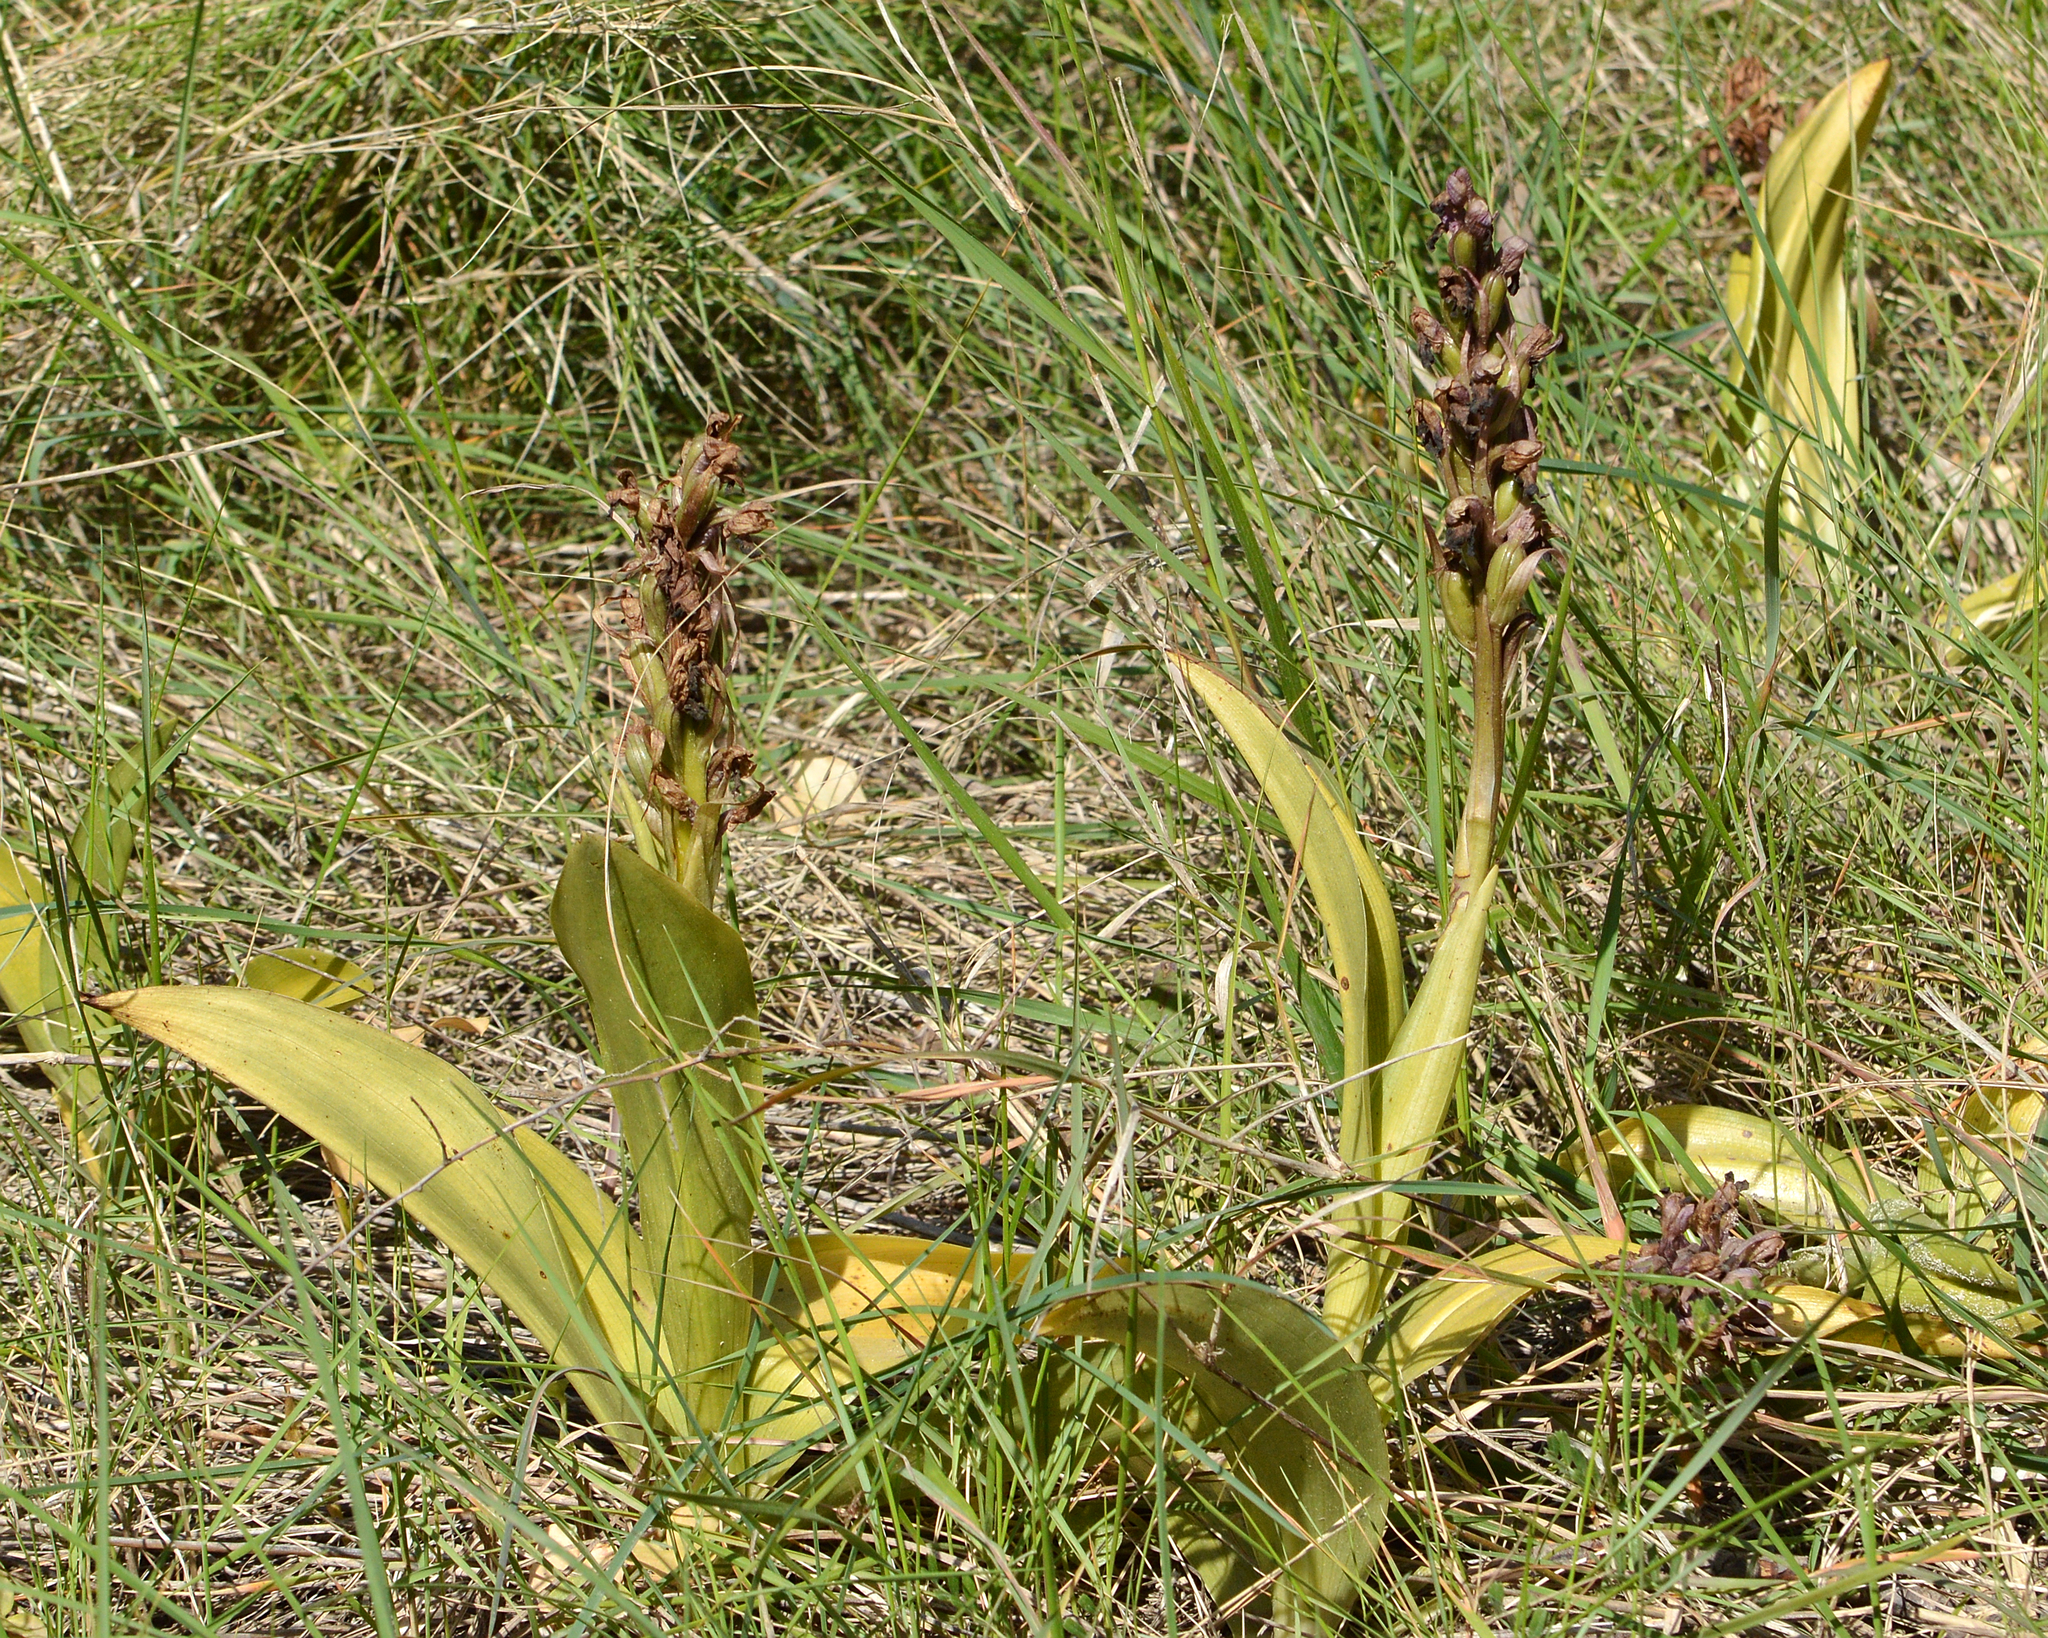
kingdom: Plantae
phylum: Tracheophyta
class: Liliopsida
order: Asparagales
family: Orchidaceae
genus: Himantoglossum
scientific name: Himantoglossum robertianum
